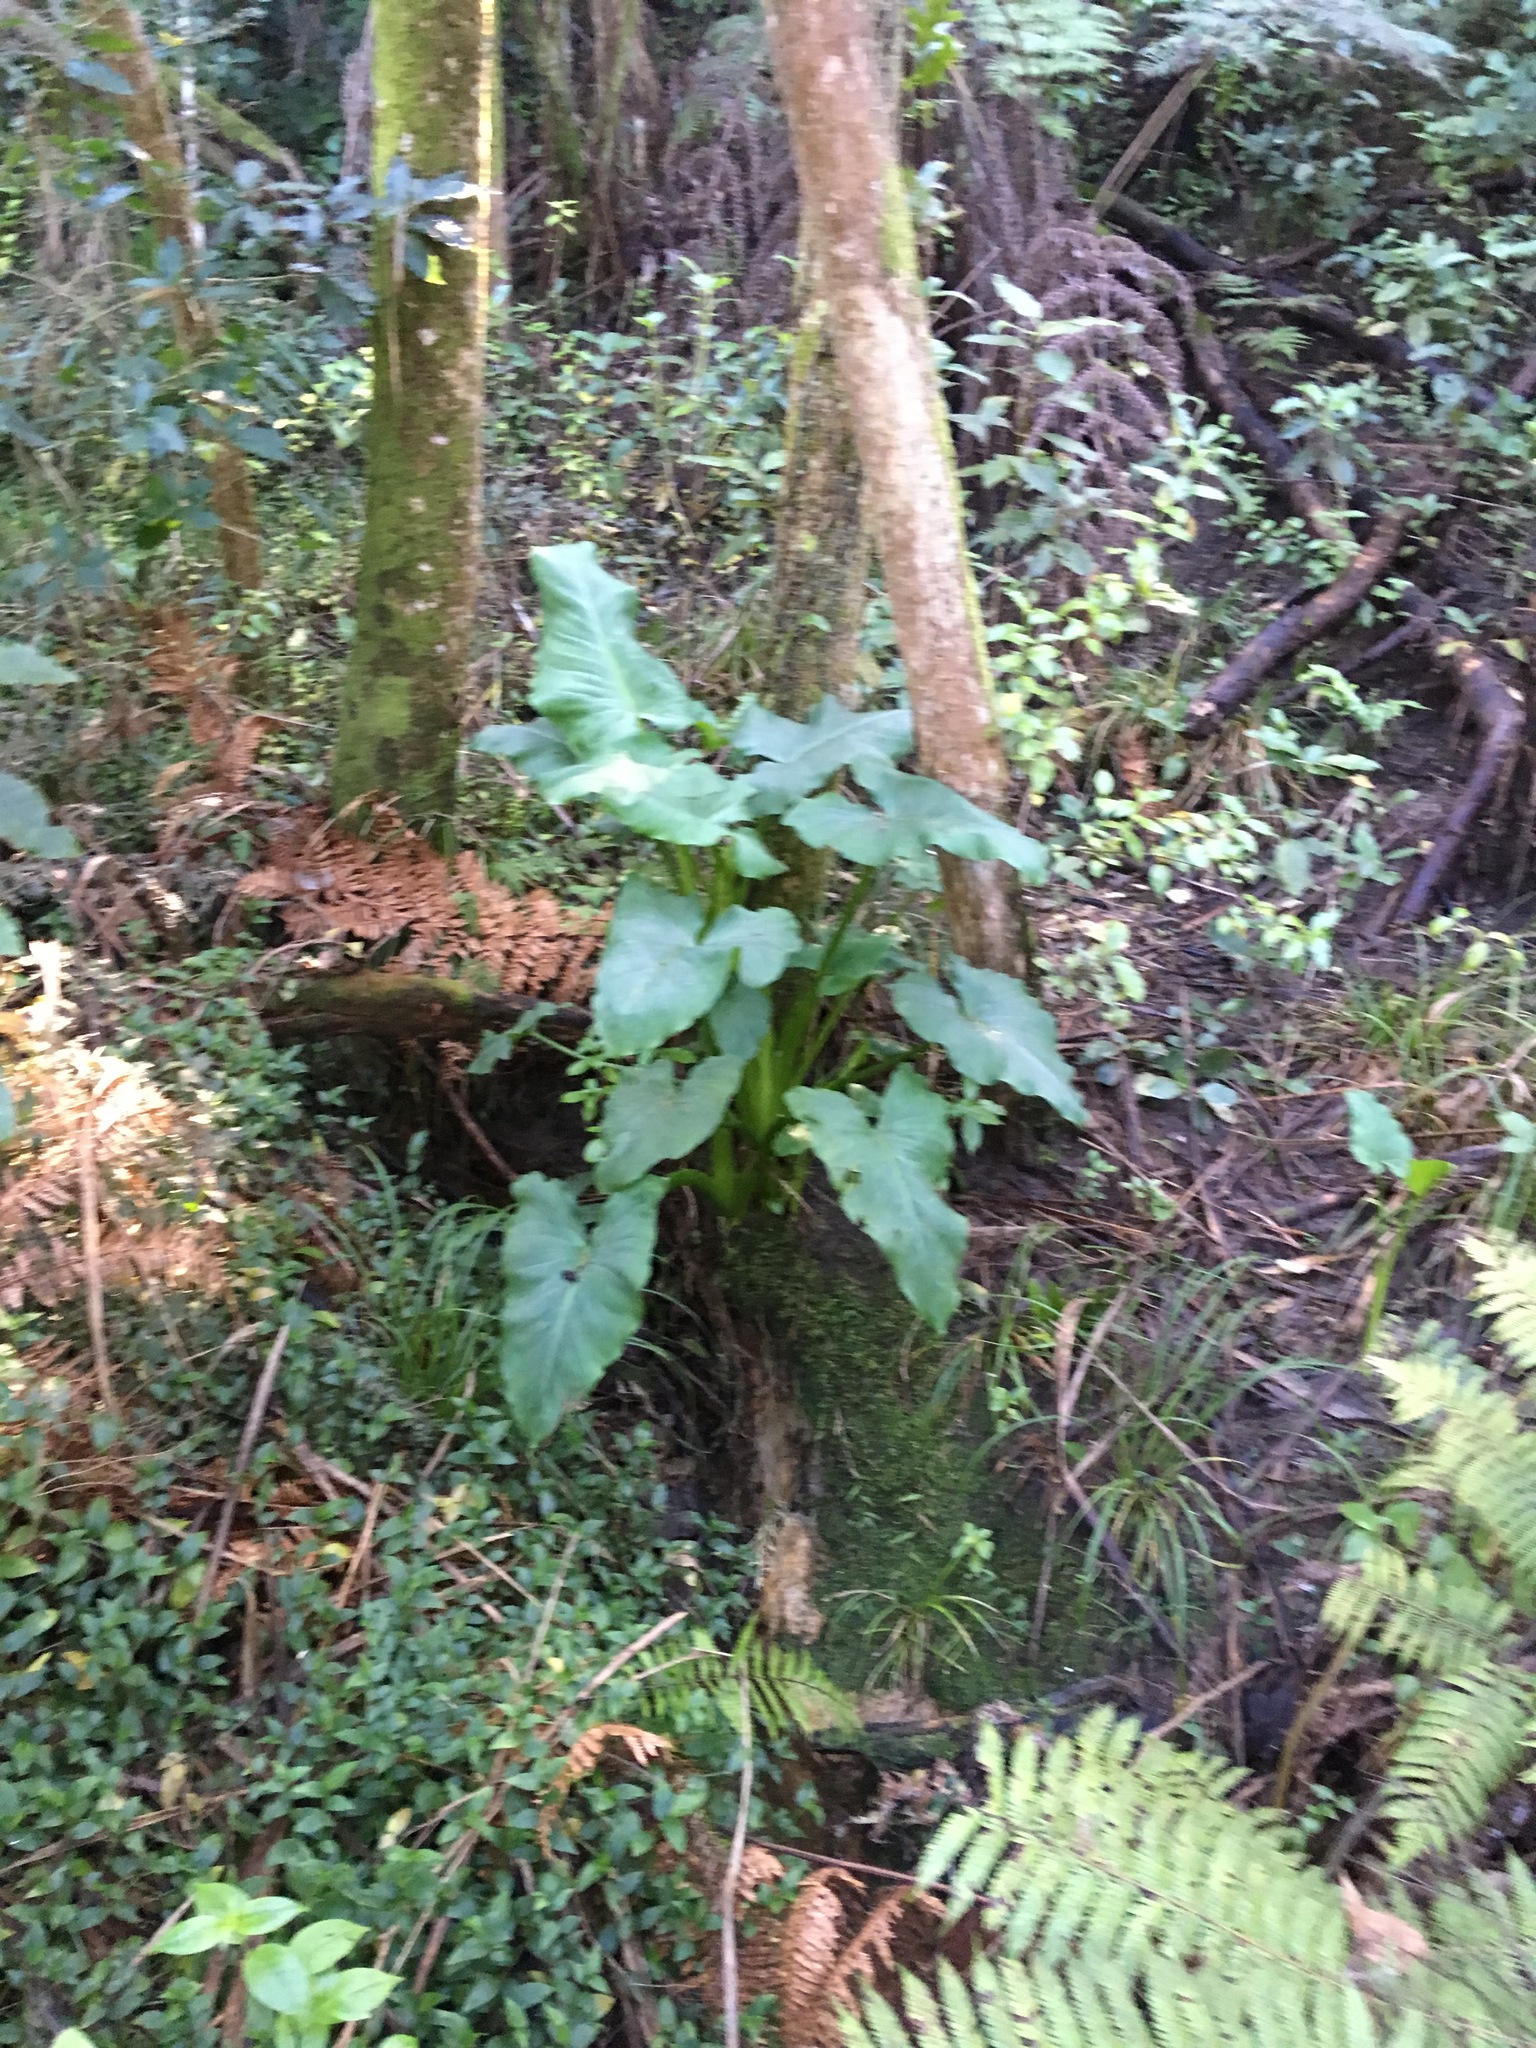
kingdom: Plantae
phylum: Tracheophyta
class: Liliopsida
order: Alismatales
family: Araceae
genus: Zantedeschia
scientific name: Zantedeschia aethiopica
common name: Altar-lily
